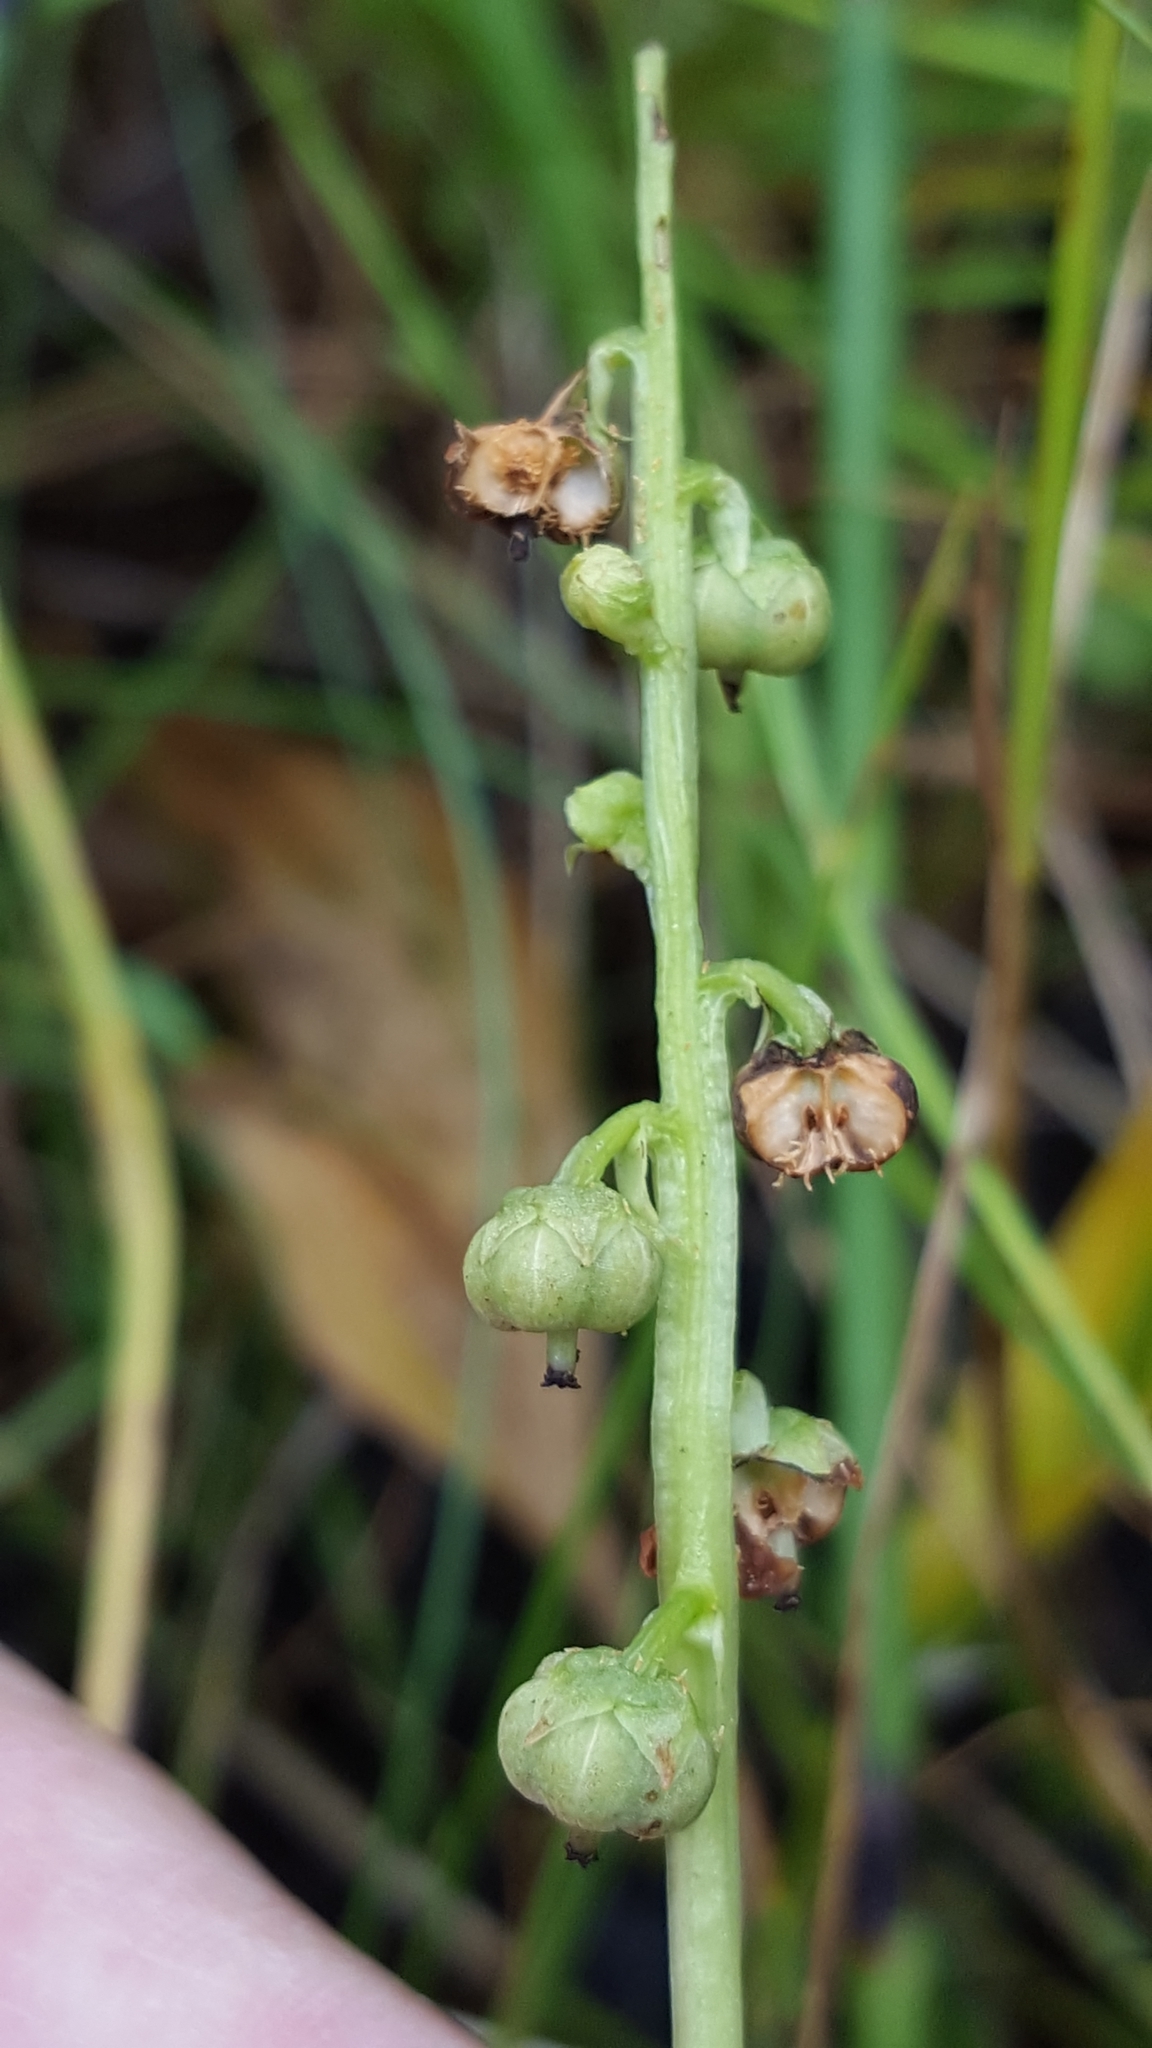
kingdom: Plantae
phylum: Tracheophyta
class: Magnoliopsida
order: Ericales
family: Ericaceae
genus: Pyrola
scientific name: Pyrola minor
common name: Common wintergreen
